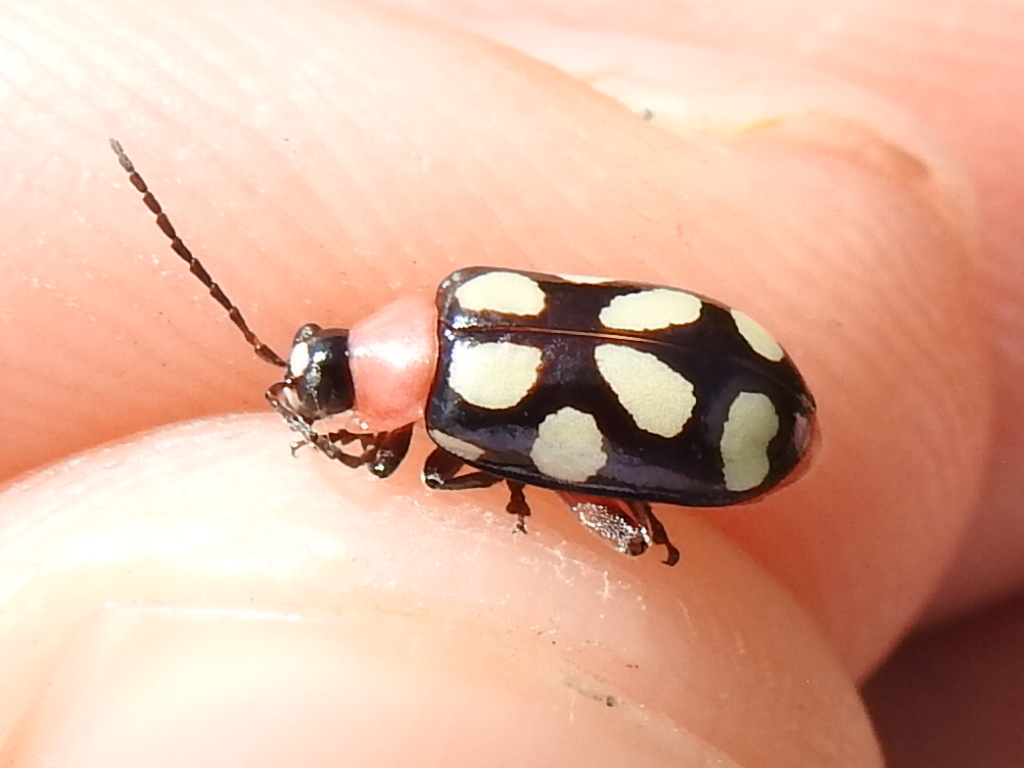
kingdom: Animalia
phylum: Arthropoda
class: Insecta
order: Coleoptera
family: Chrysomelidae
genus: Omophoita
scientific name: Omophoita cyanipennis
